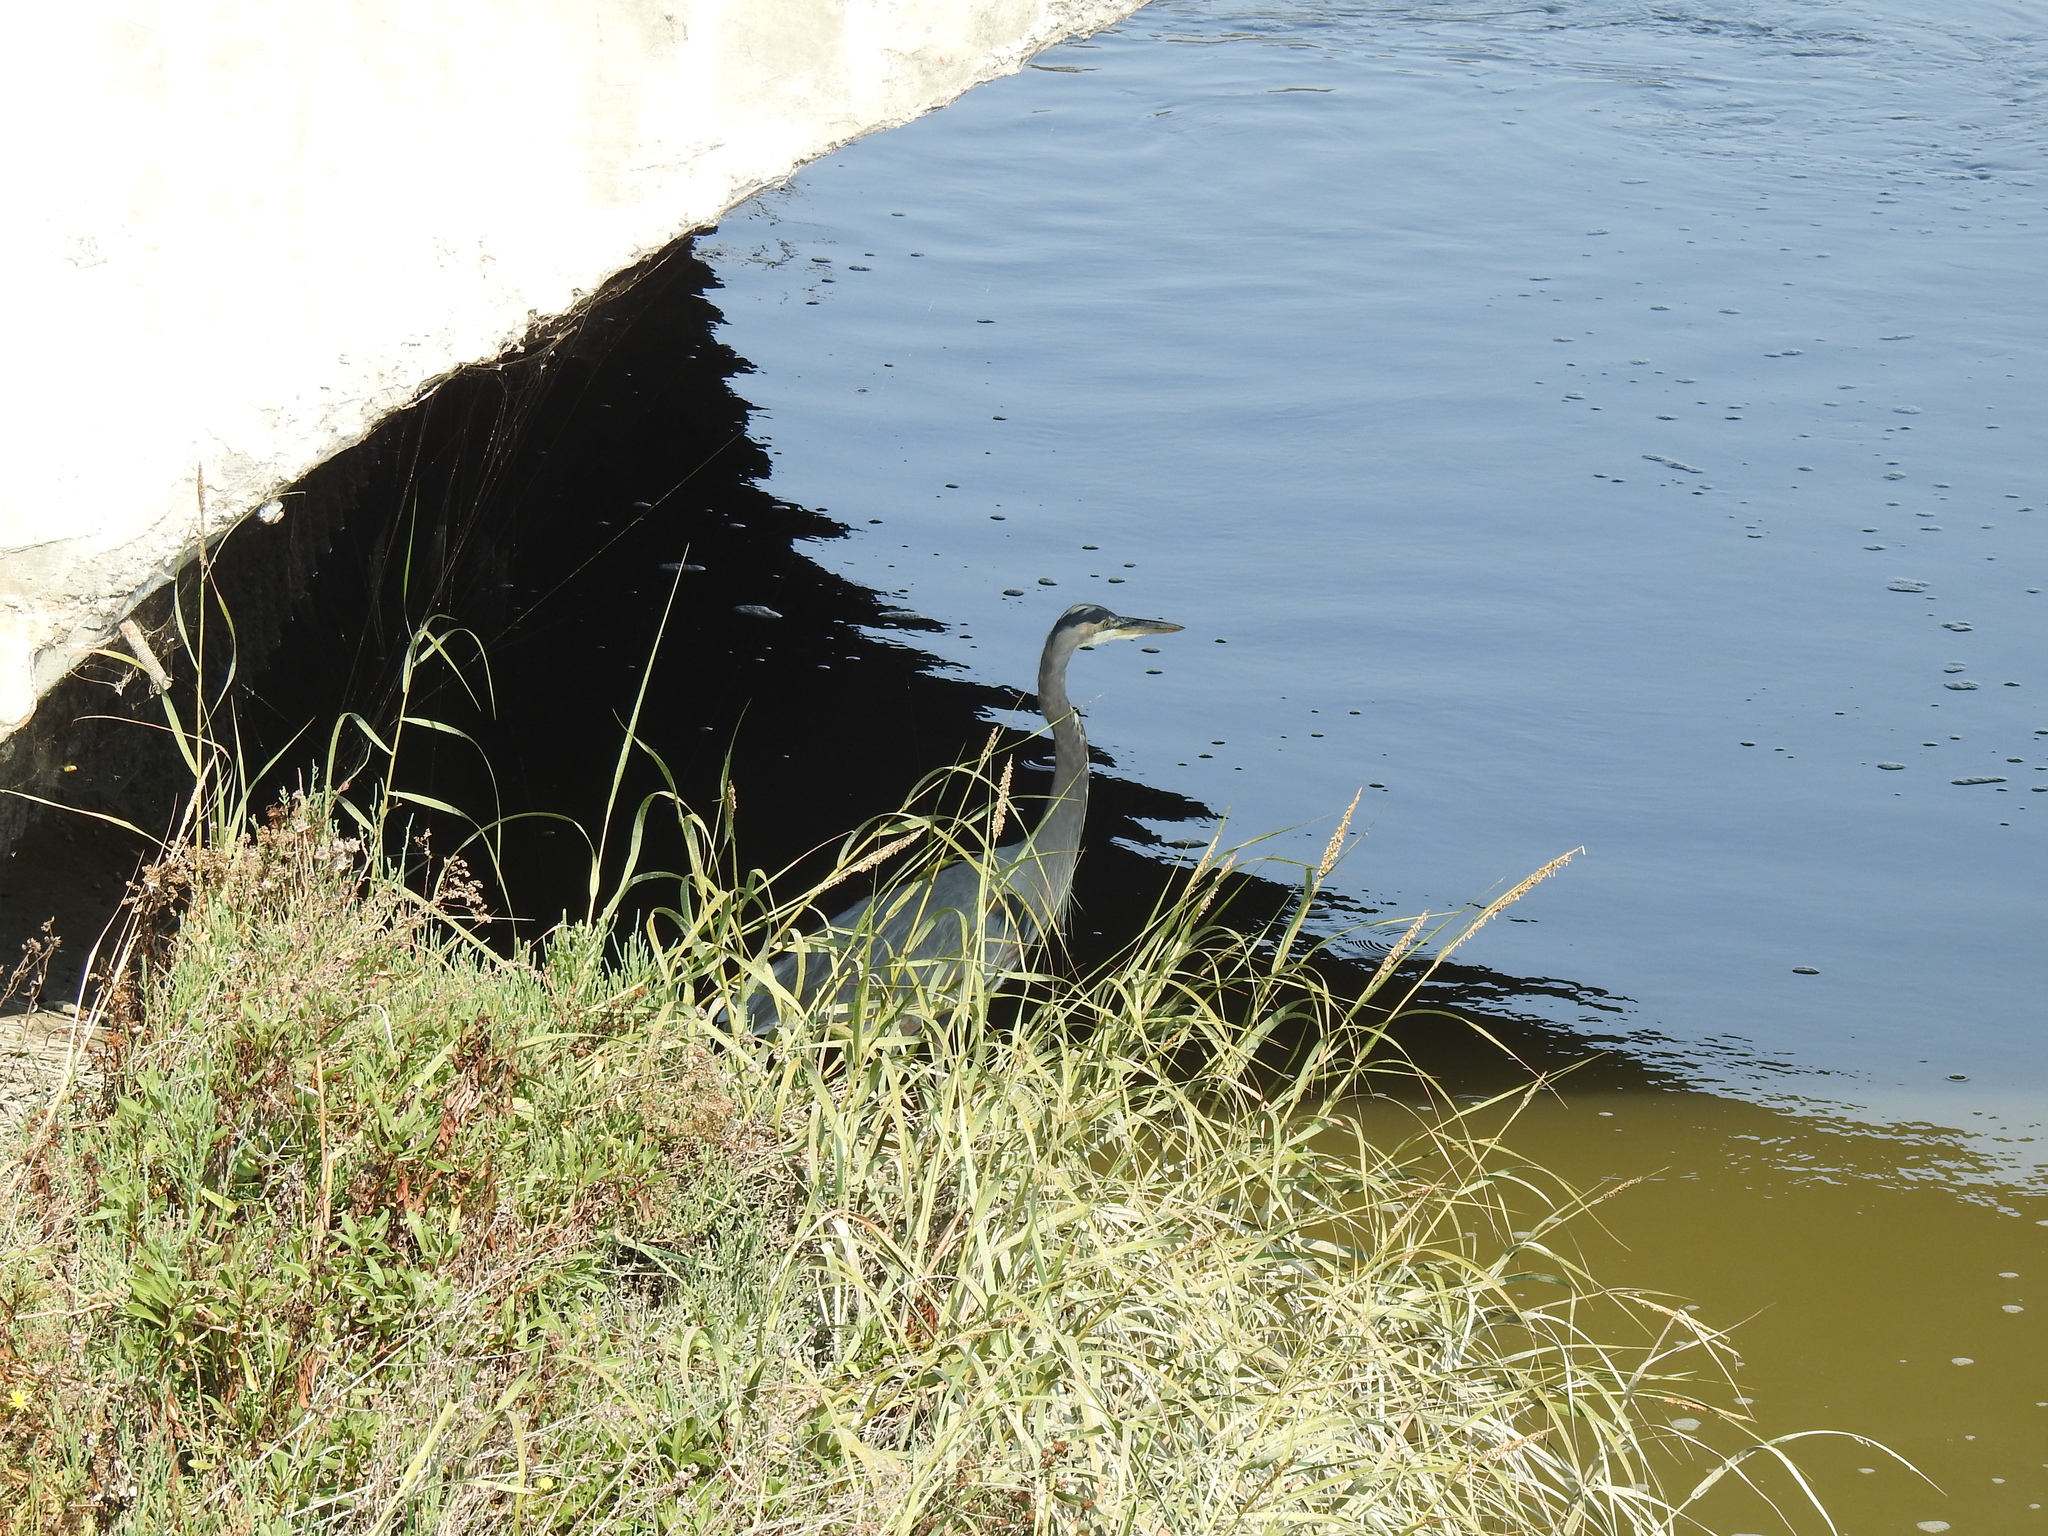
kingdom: Animalia
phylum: Chordata
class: Aves
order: Pelecaniformes
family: Ardeidae
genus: Ardea
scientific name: Ardea herodias
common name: Great blue heron
